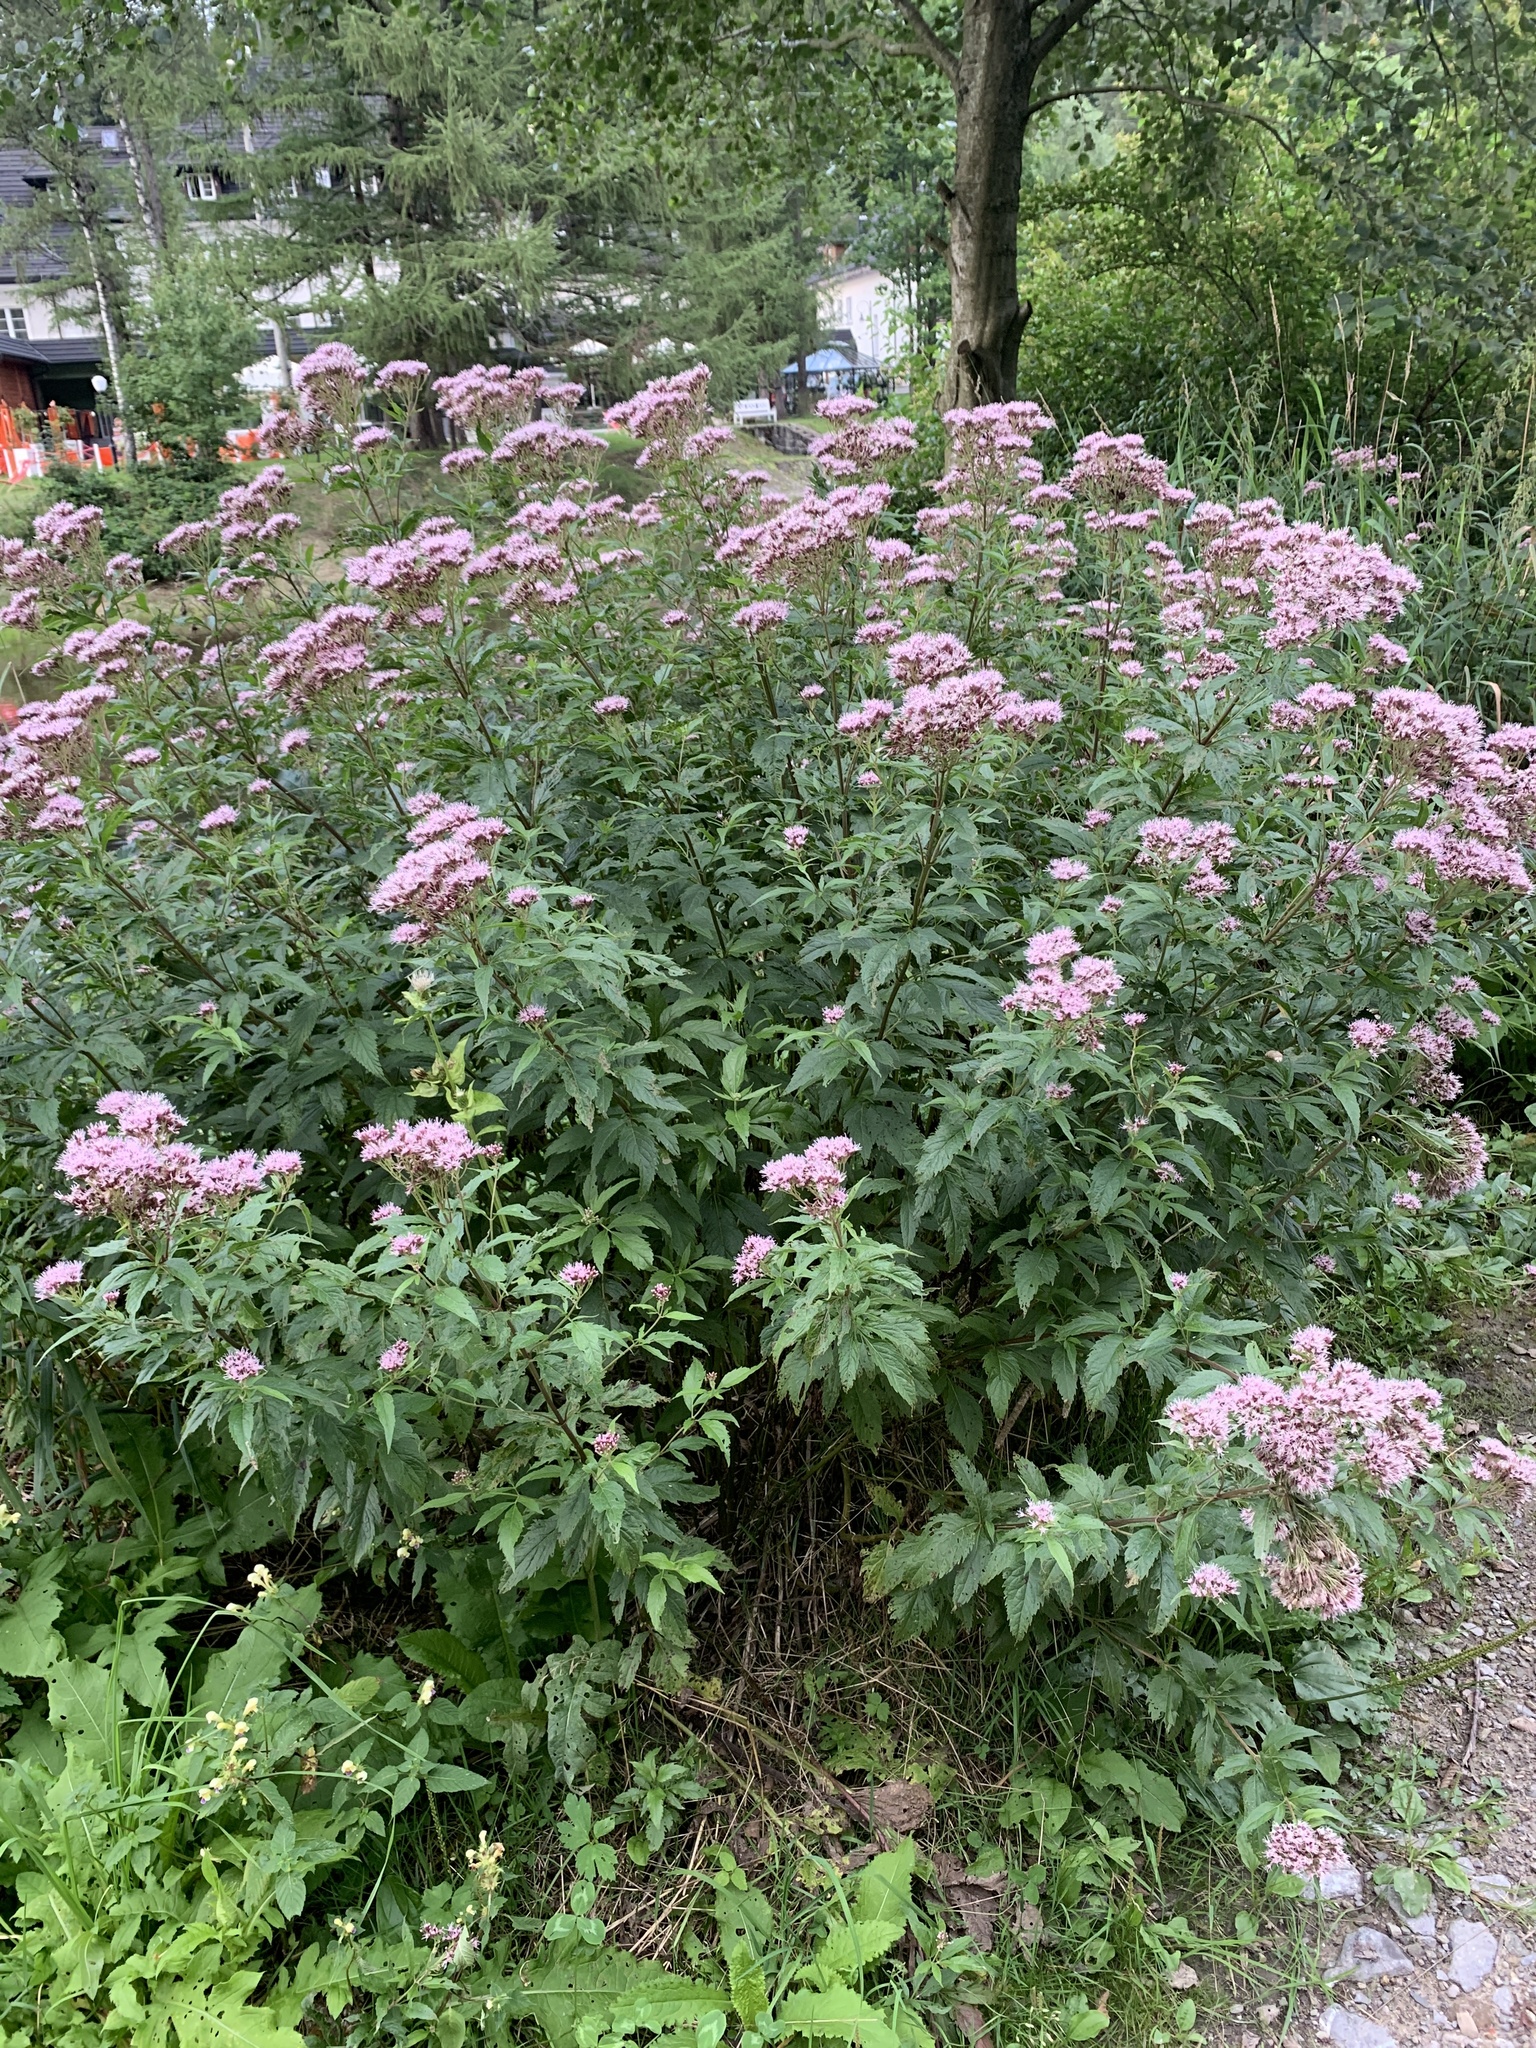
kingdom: Plantae
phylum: Tracheophyta
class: Magnoliopsida
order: Asterales
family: Asteraceae
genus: Eupatorium
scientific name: Eupatorium cannabinum
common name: Hemp-agrimony
